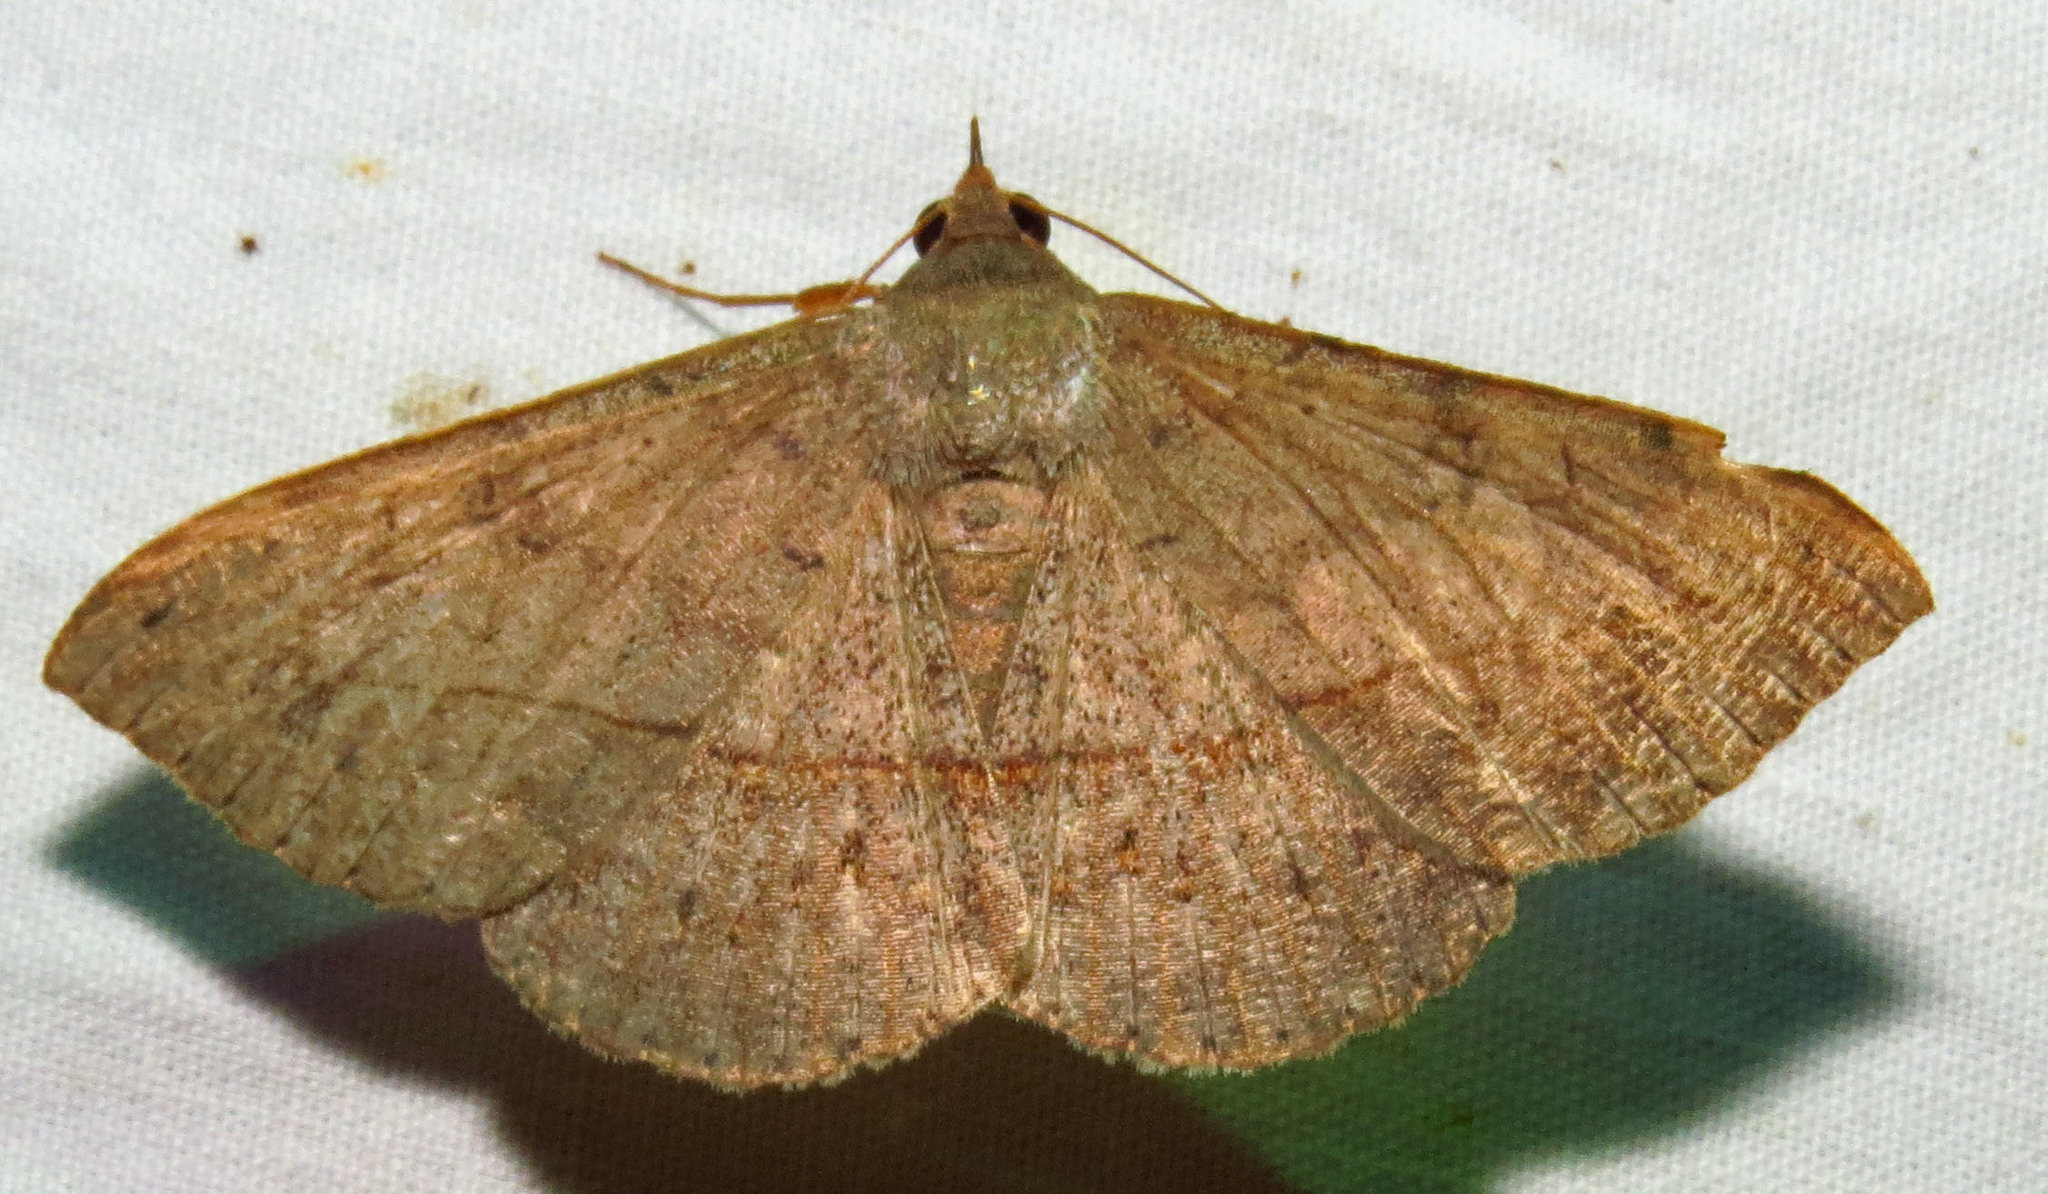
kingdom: Animalia
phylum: Arthropoda
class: Insecta
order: Lepidoptera
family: Erebidae
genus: Anticarsia
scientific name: Anticarsia gemmatalis
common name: Cutworm moth
